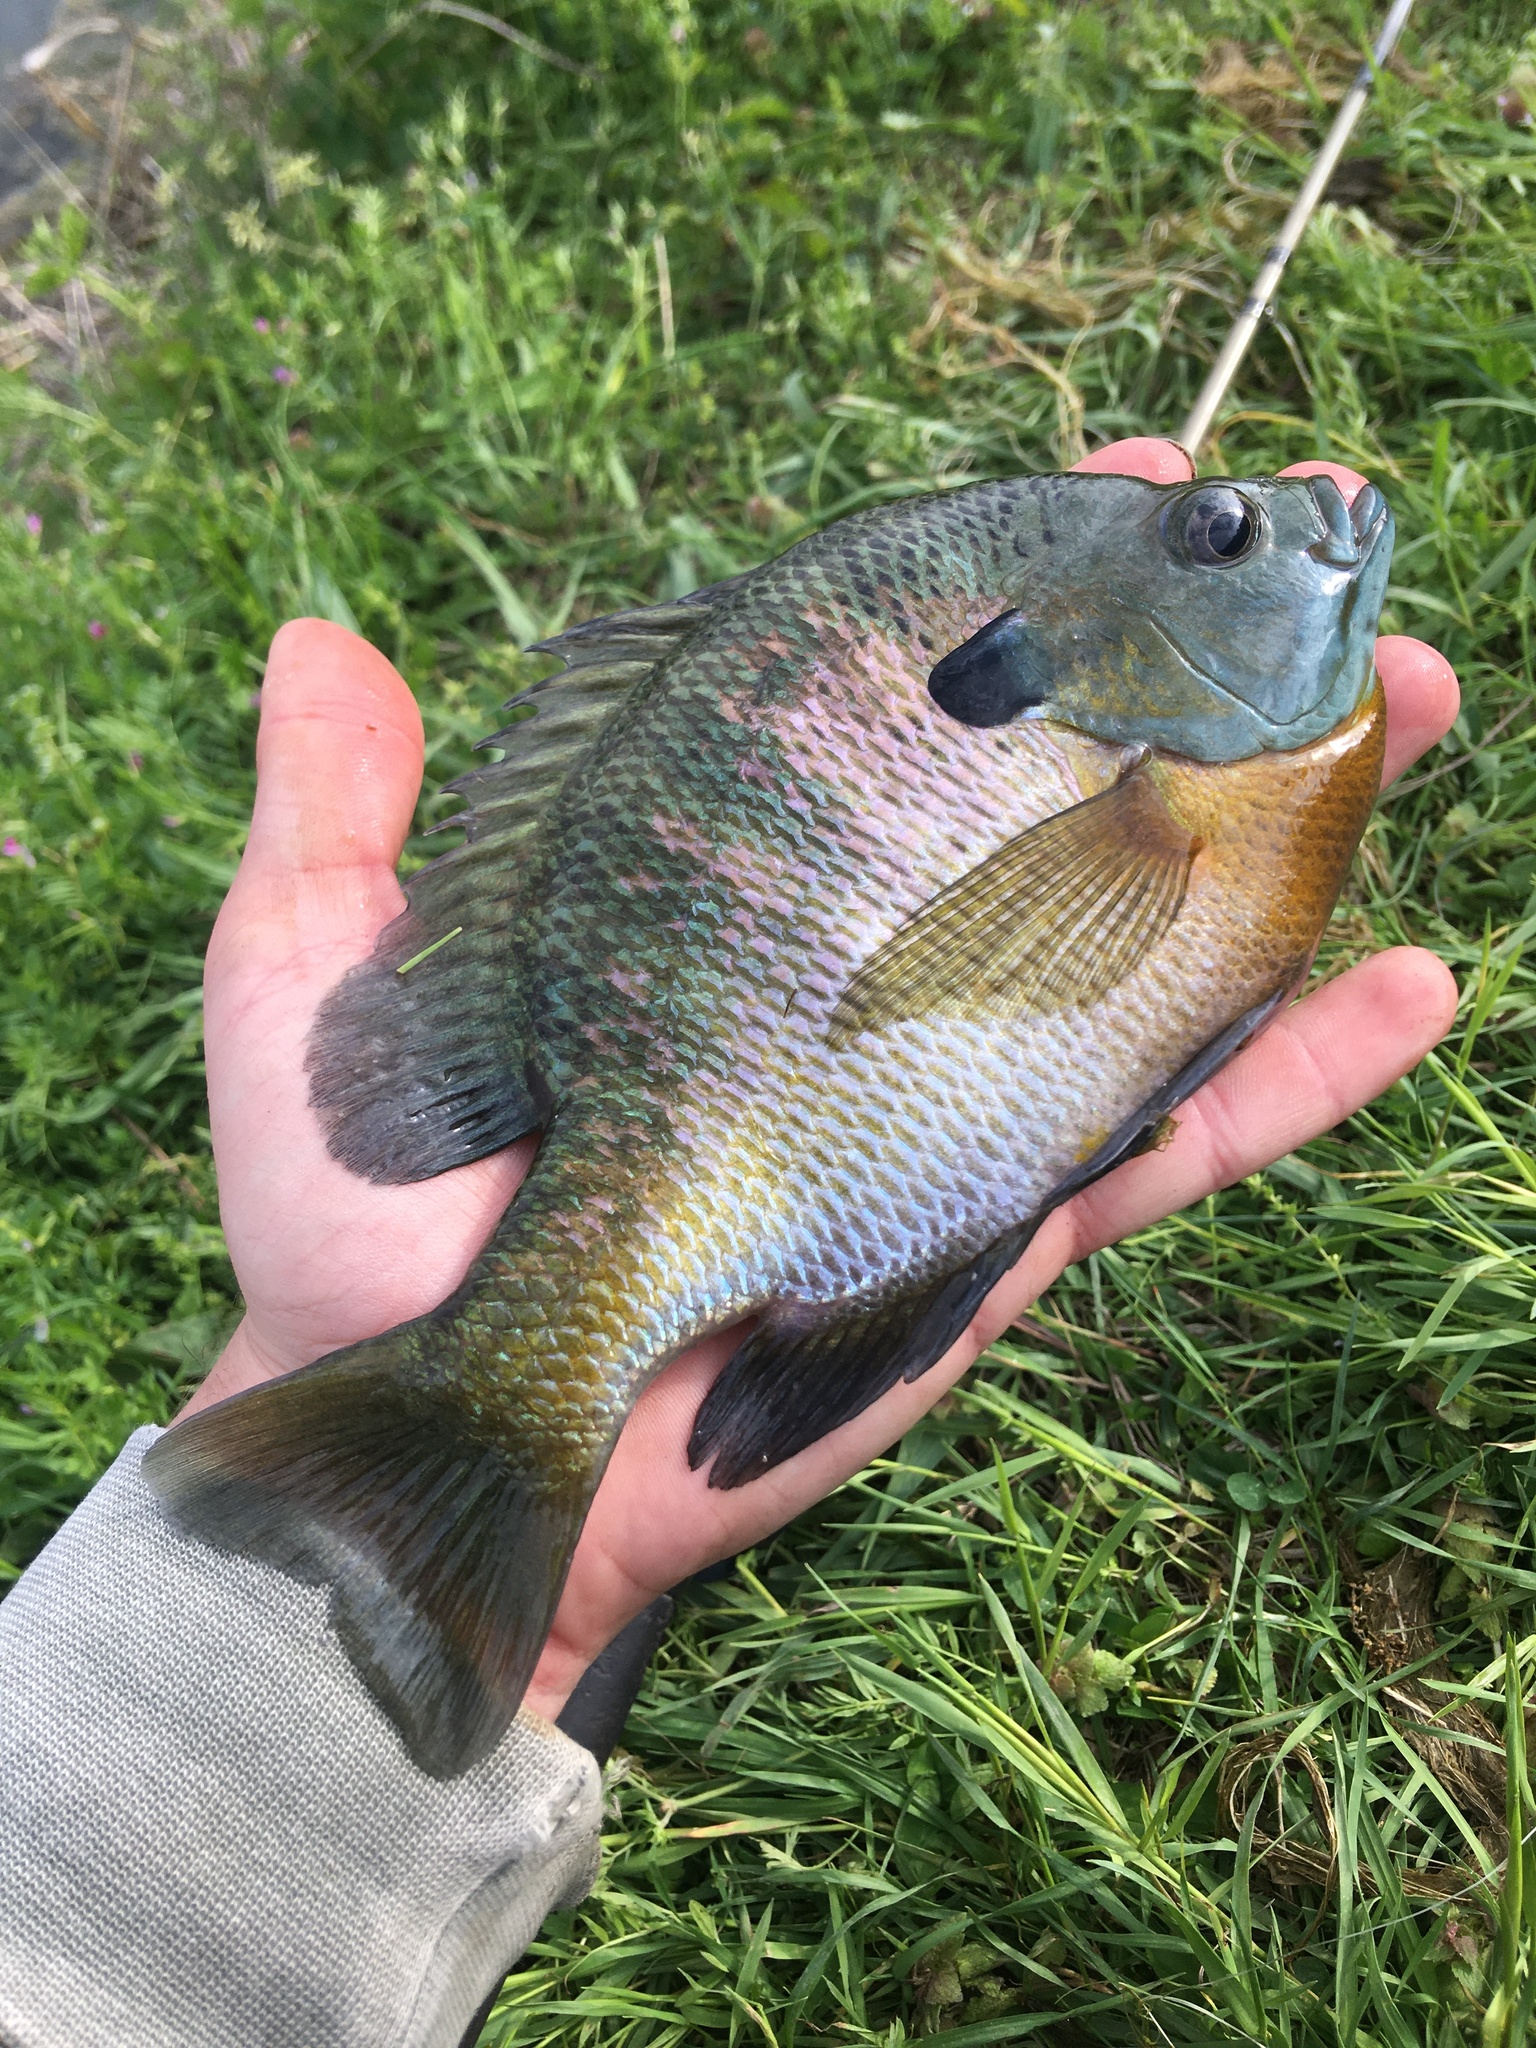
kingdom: Animalia
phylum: Chordata
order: Perciformes
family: Centrarchidae
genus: Lepomis
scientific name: Lepomis macrochirus
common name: Bluegill
